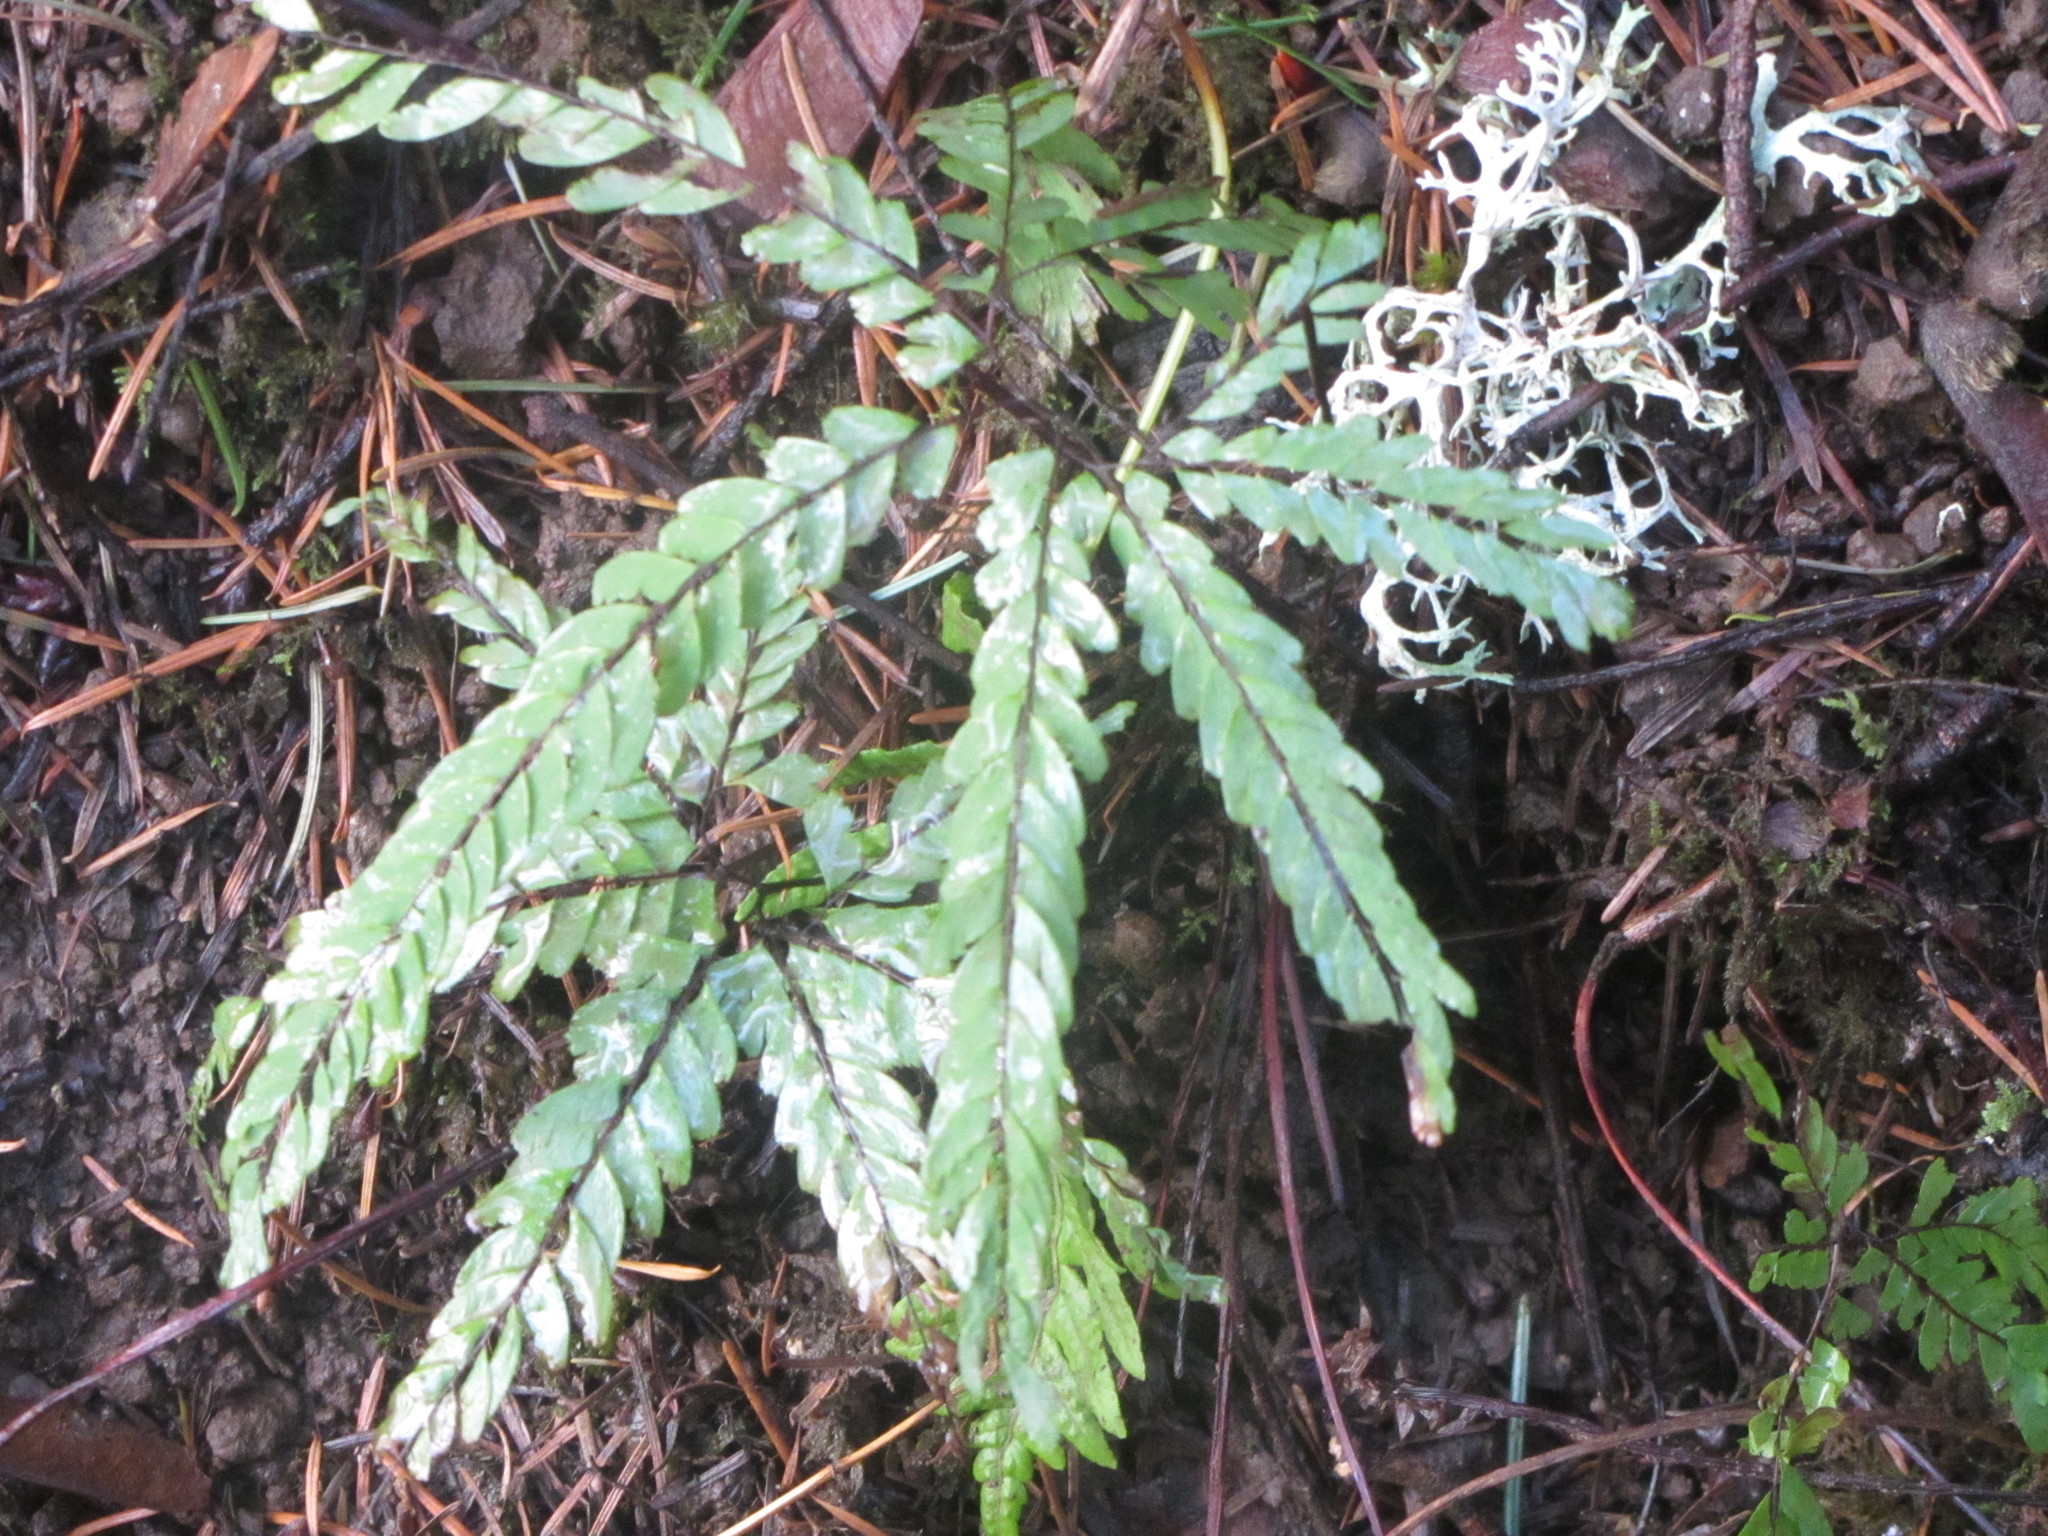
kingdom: Plantae
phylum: Tracheophyta
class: Polypodiopsida
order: Polypodiales
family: Pteridaceae
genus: Adiantum
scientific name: Adiantum aleuticum
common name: Aleutian maidenhair fern
